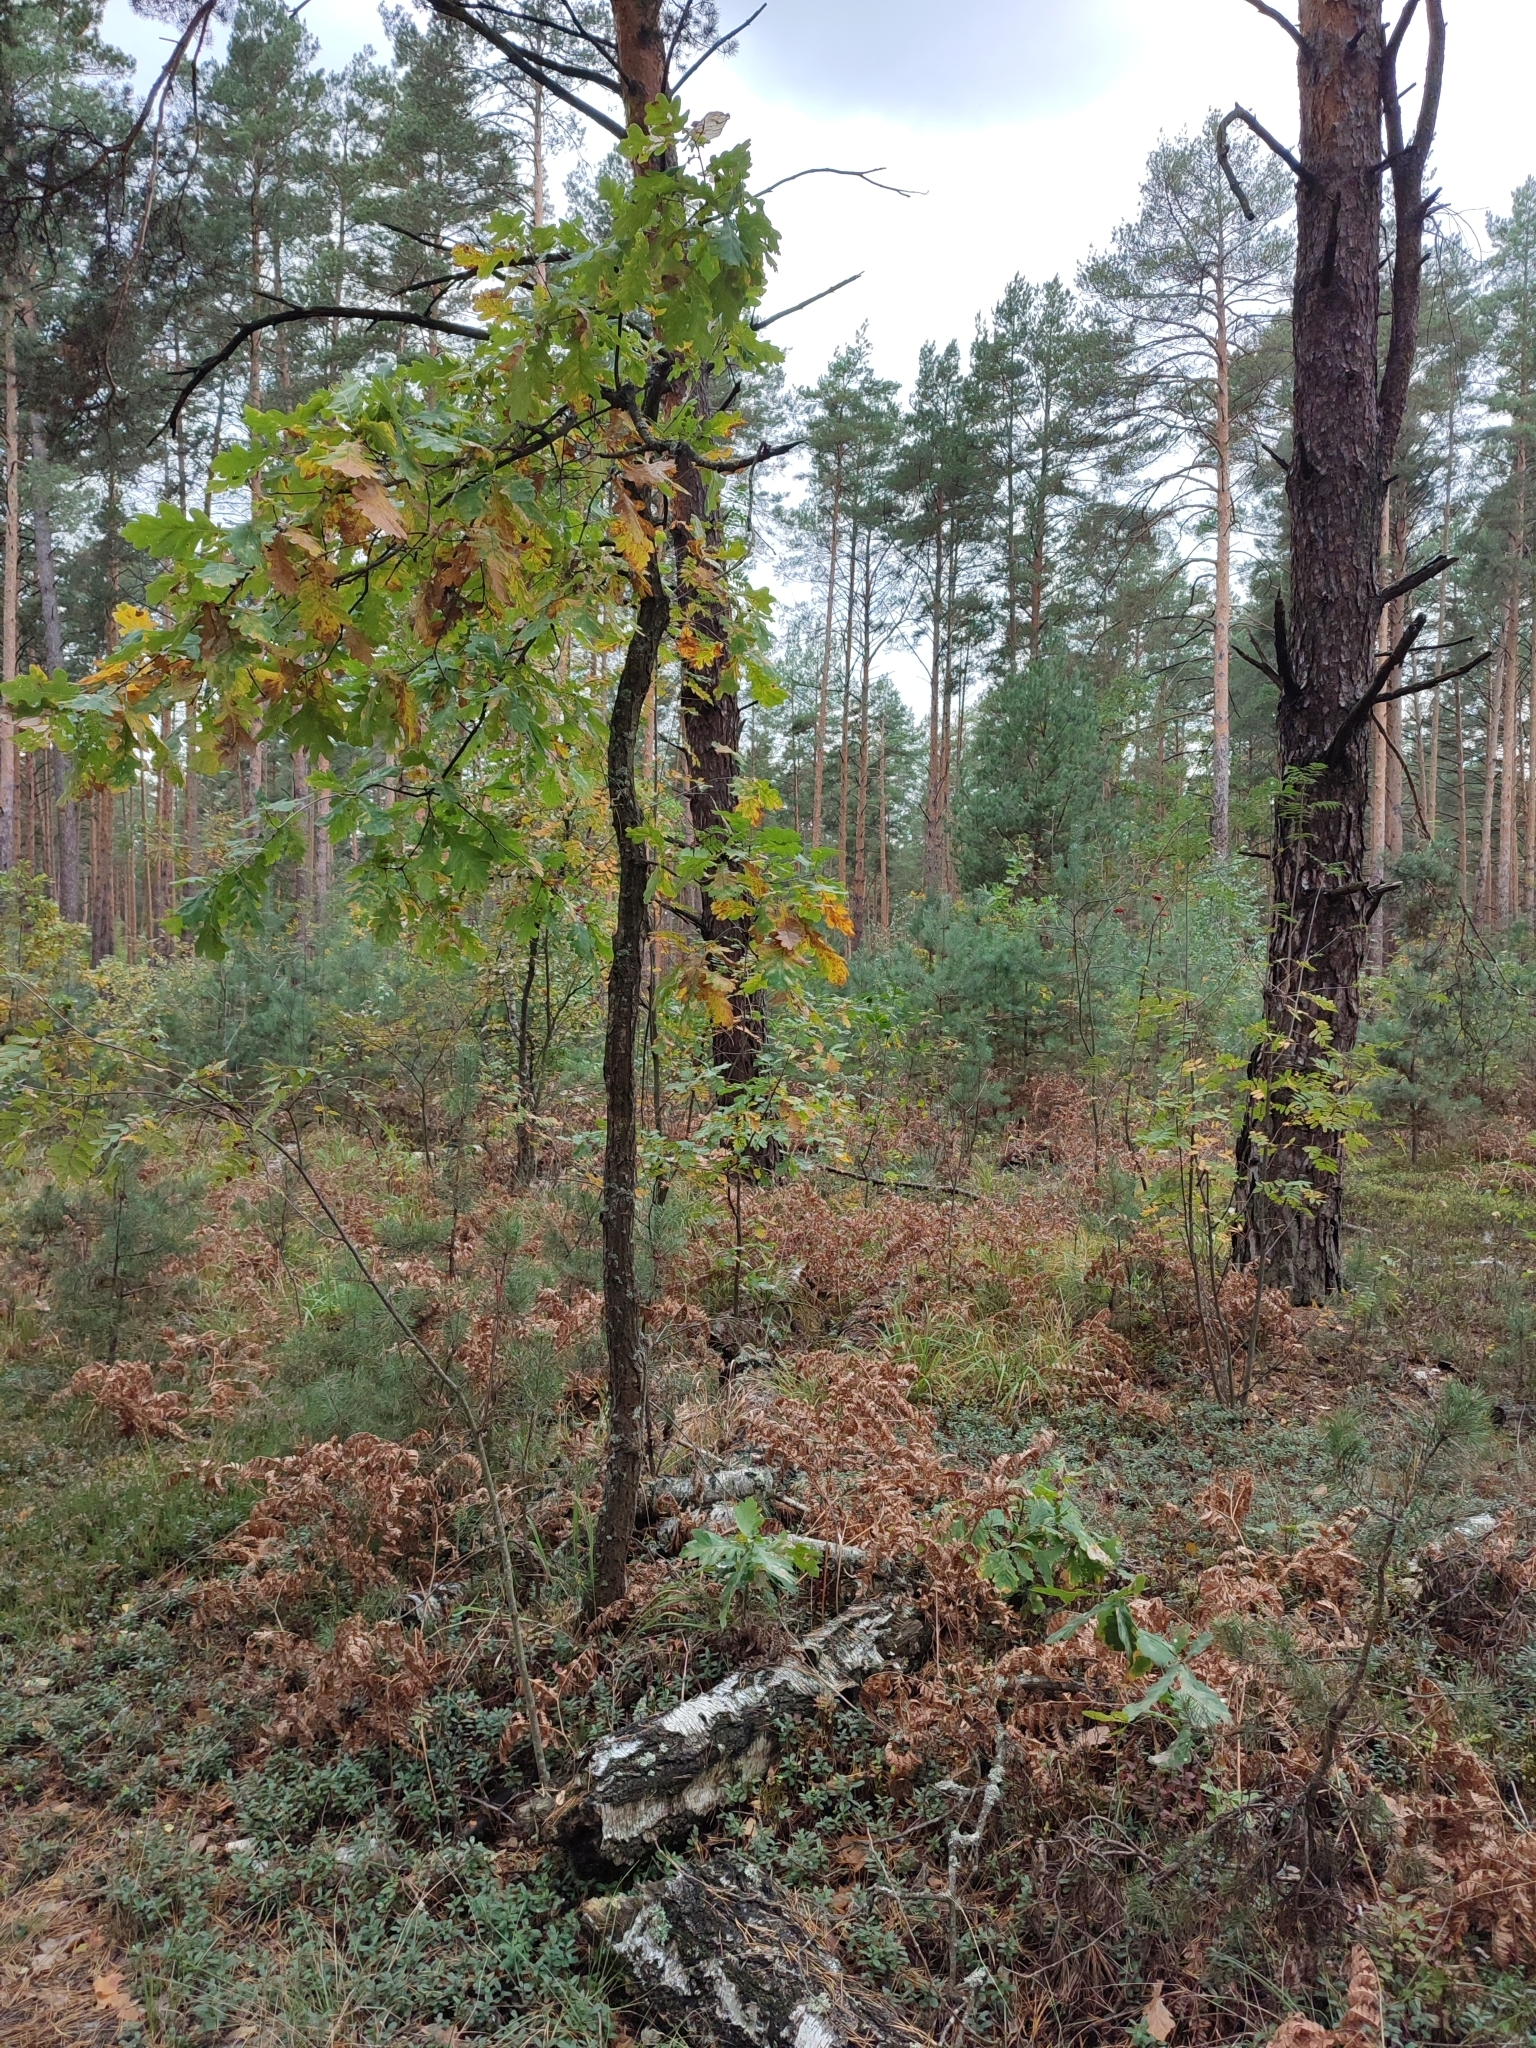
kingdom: Plantae
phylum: Tracheophyta
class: Magnoliopsida
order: Fagales
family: Fagaceae
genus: Quercus
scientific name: Quercus robur
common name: Pedunculate oak
